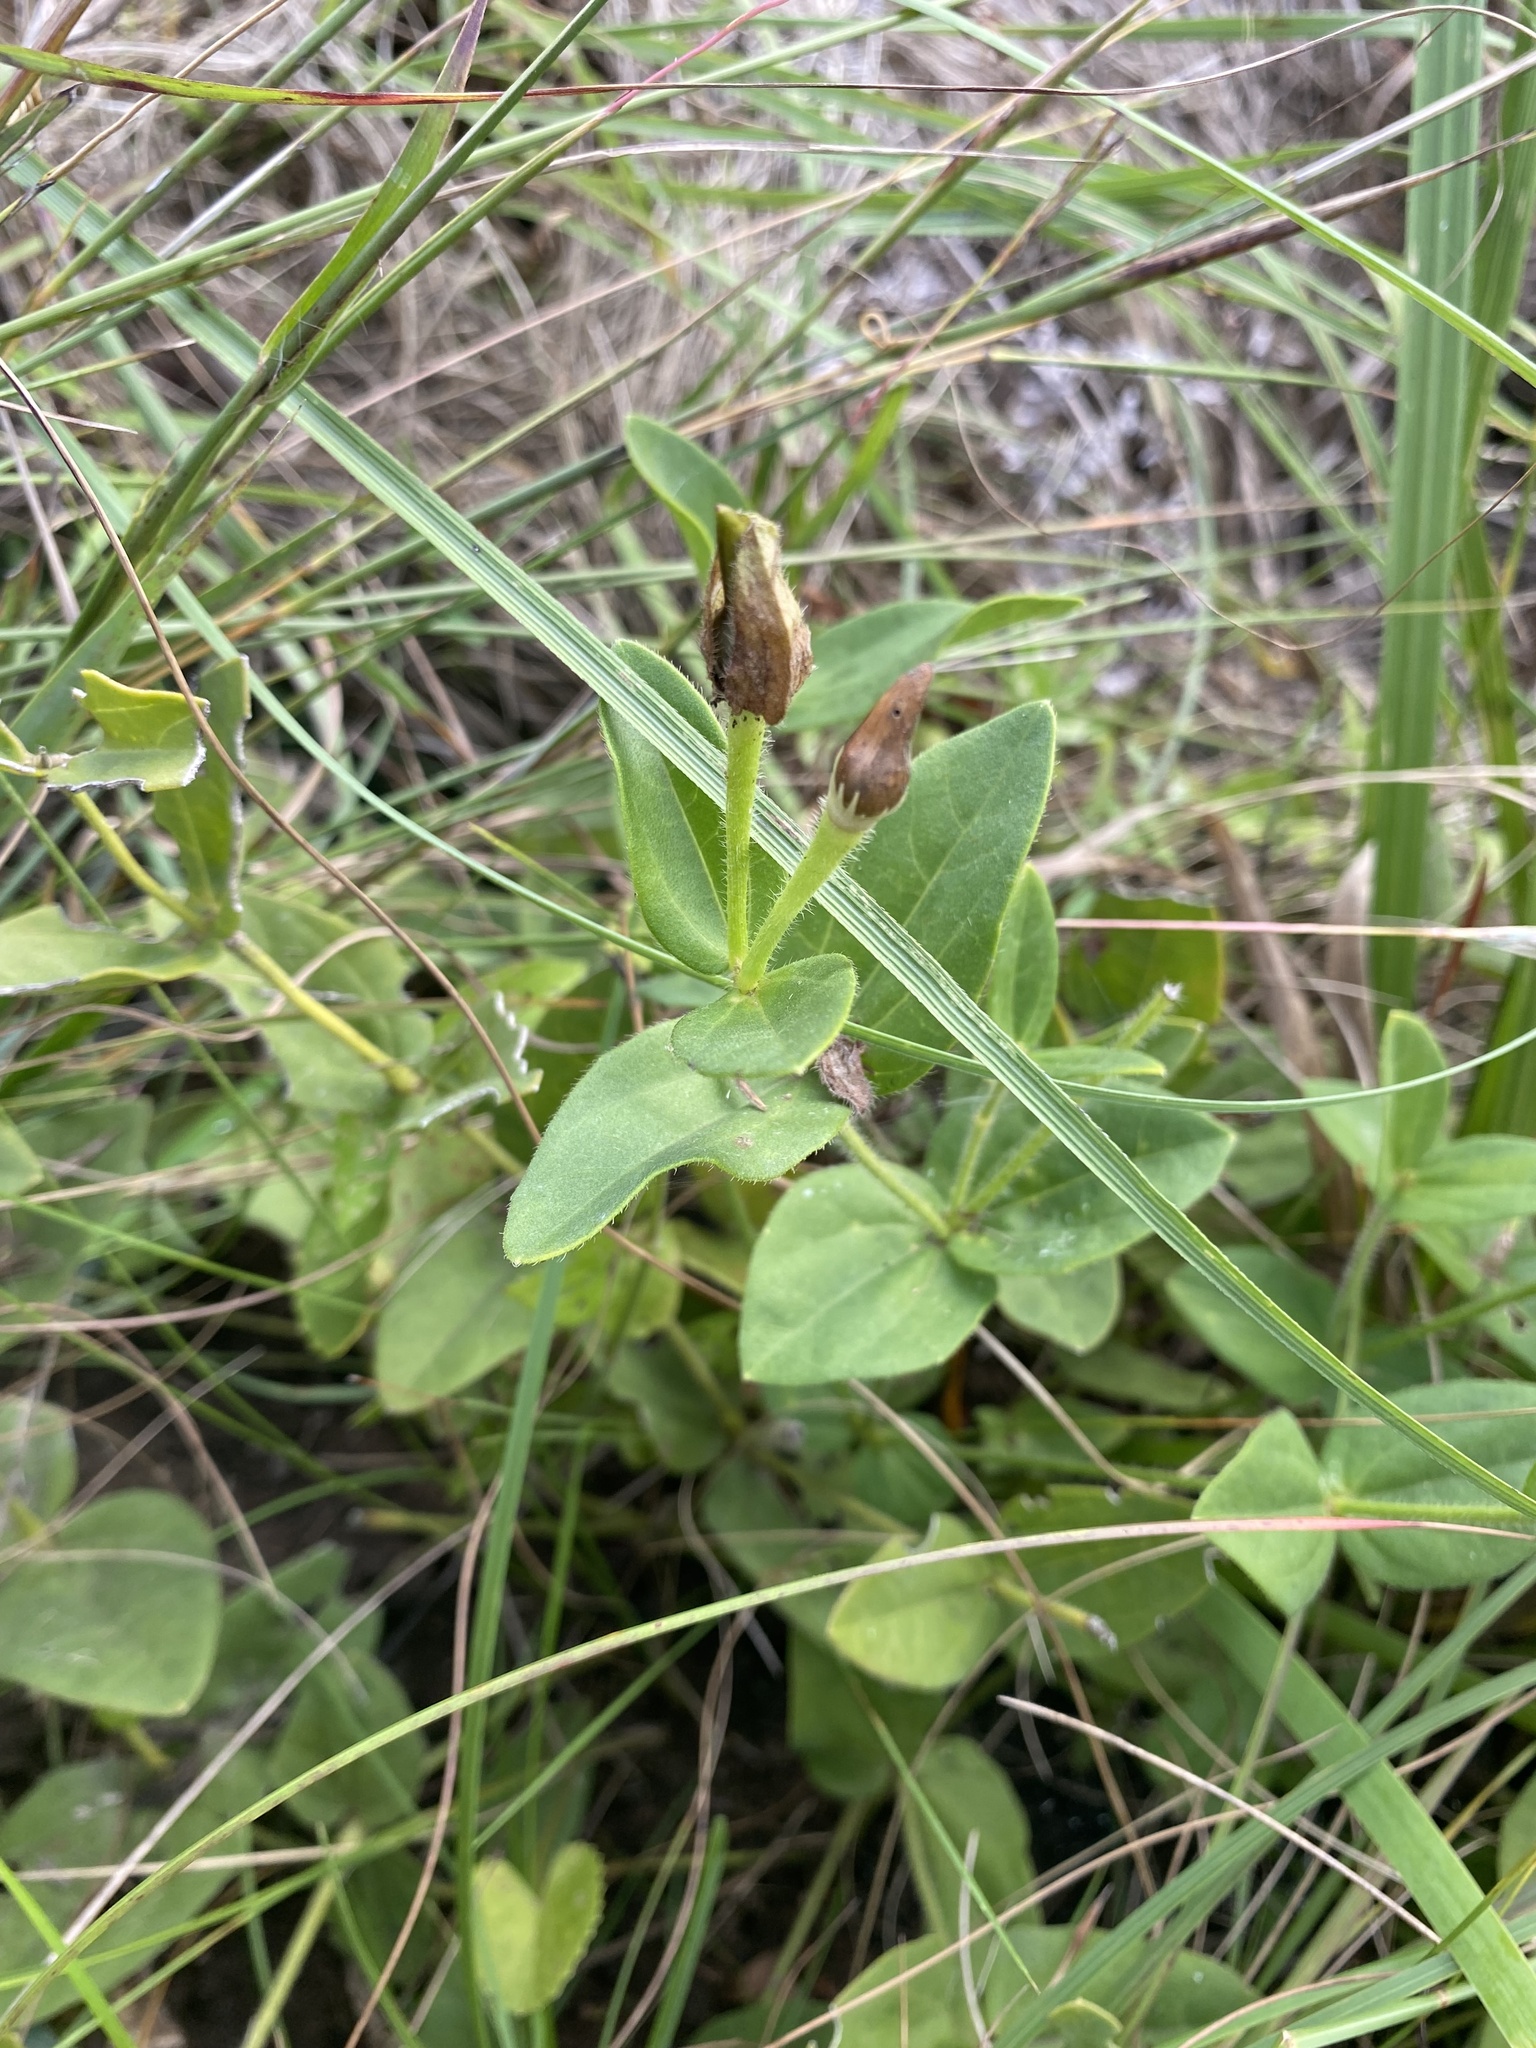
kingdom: Plantae
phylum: Tracheophyta
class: Magnoliopsida
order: Lamiales
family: Acanthaceae
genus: Thunbergia
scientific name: Thunbergia atriplicifolia
